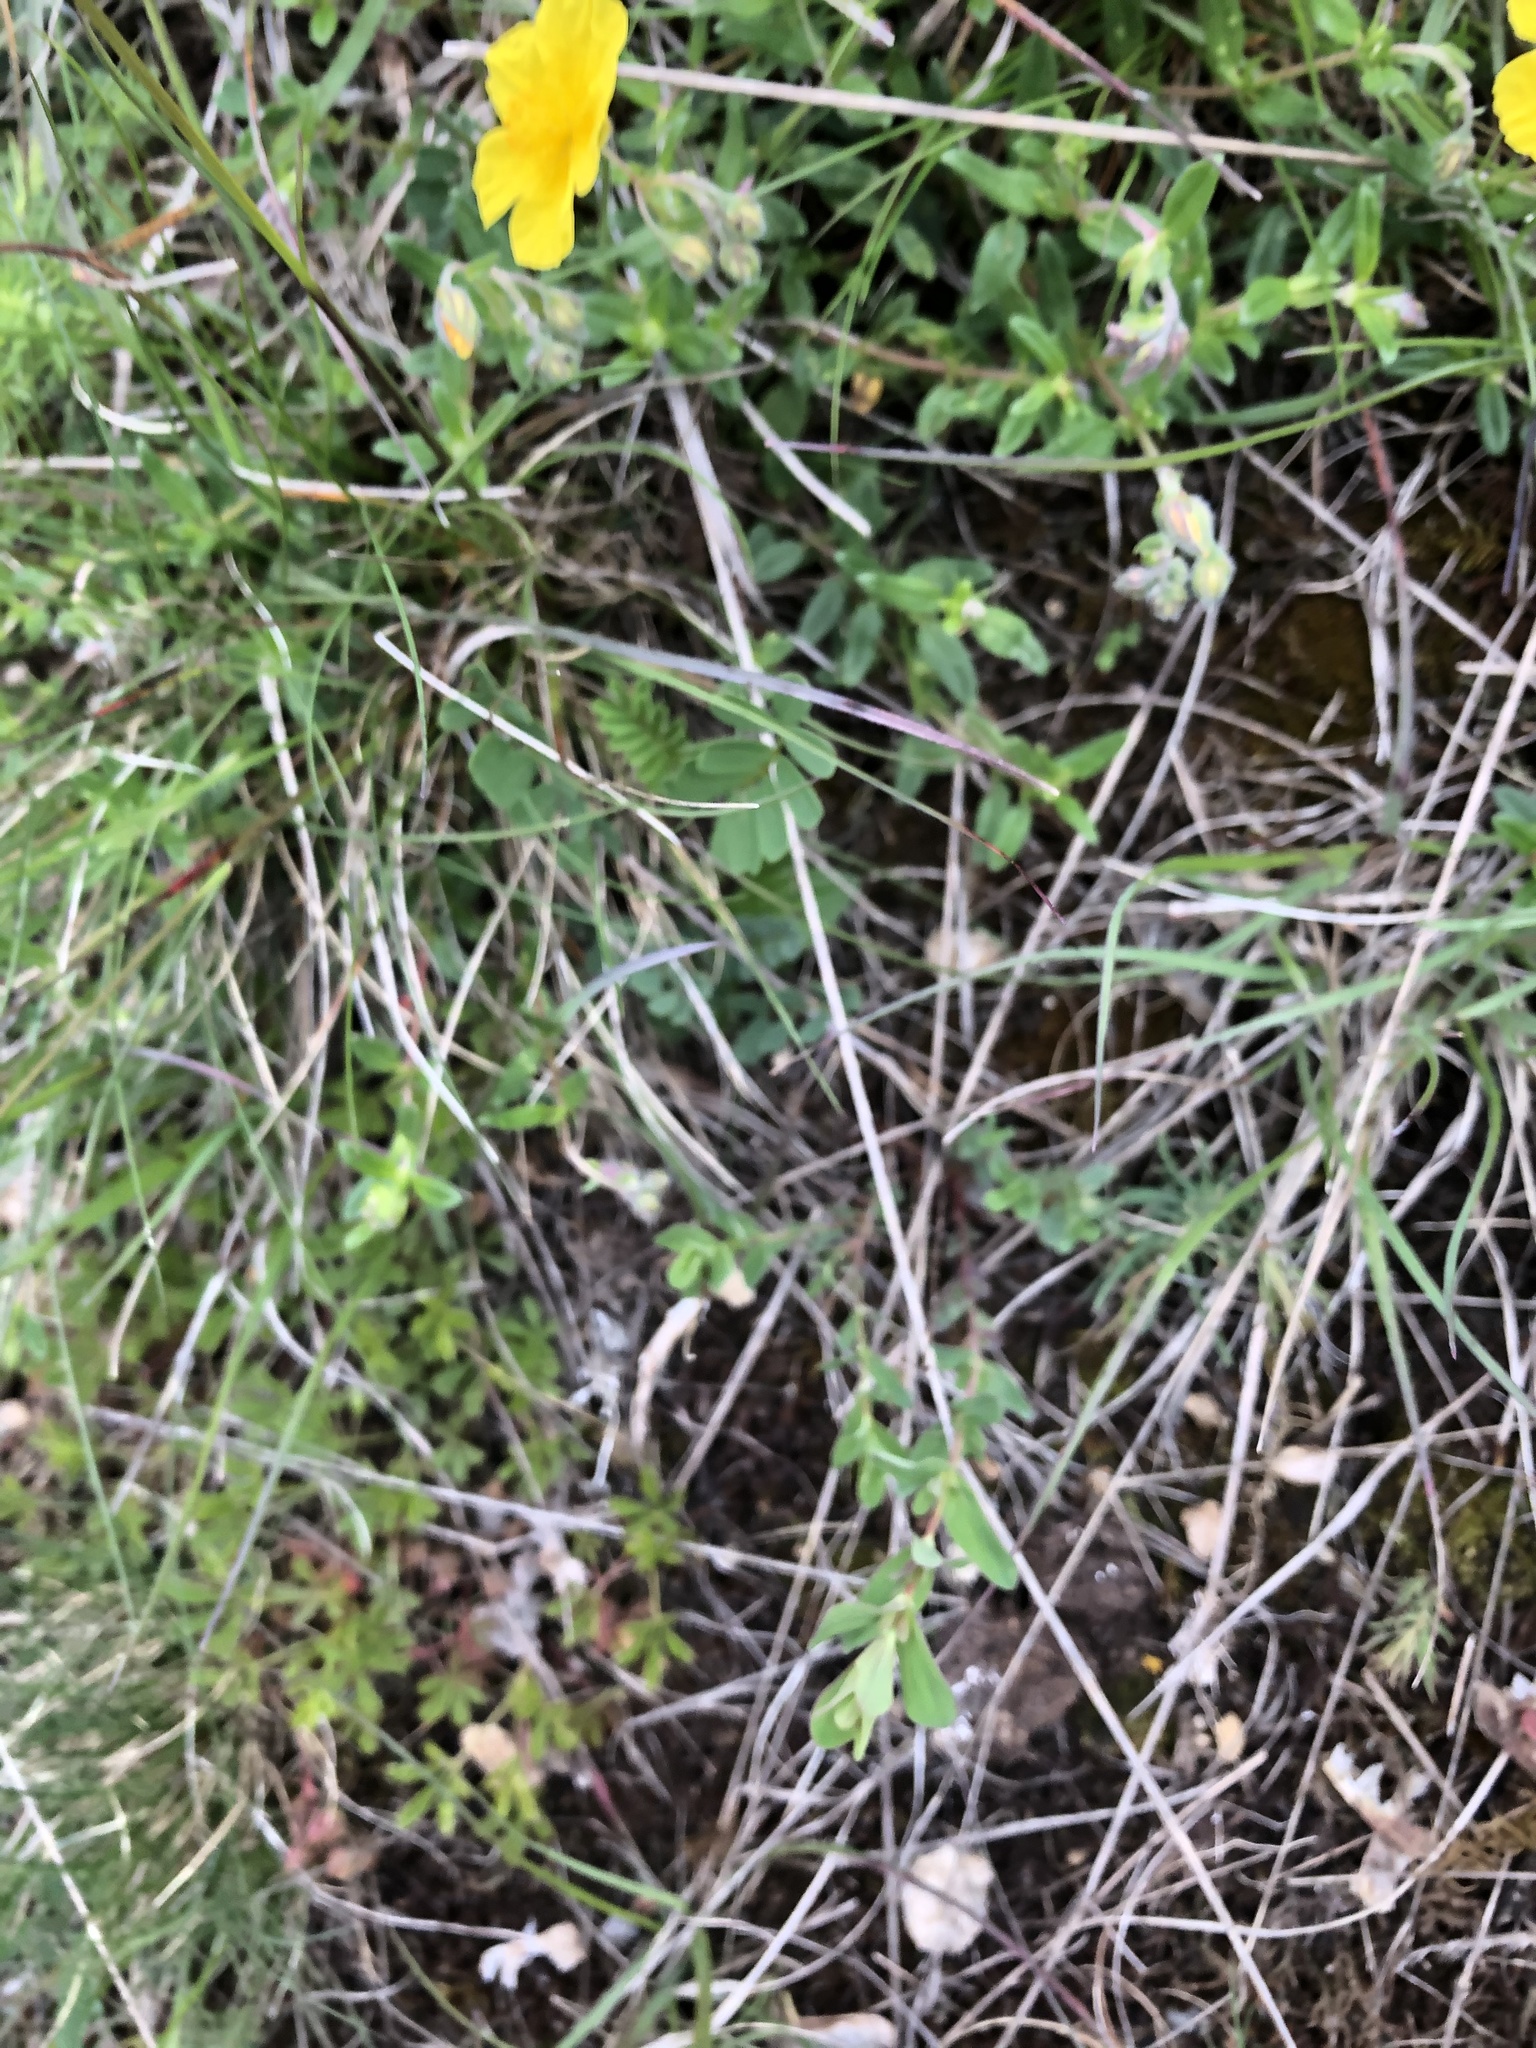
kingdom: Plantae
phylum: Tracheophyta
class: Magnoliopsida
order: Malvales
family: Cistaceae
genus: Helianthemum
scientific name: Helianthemum nummularium
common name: Common rock-rose
